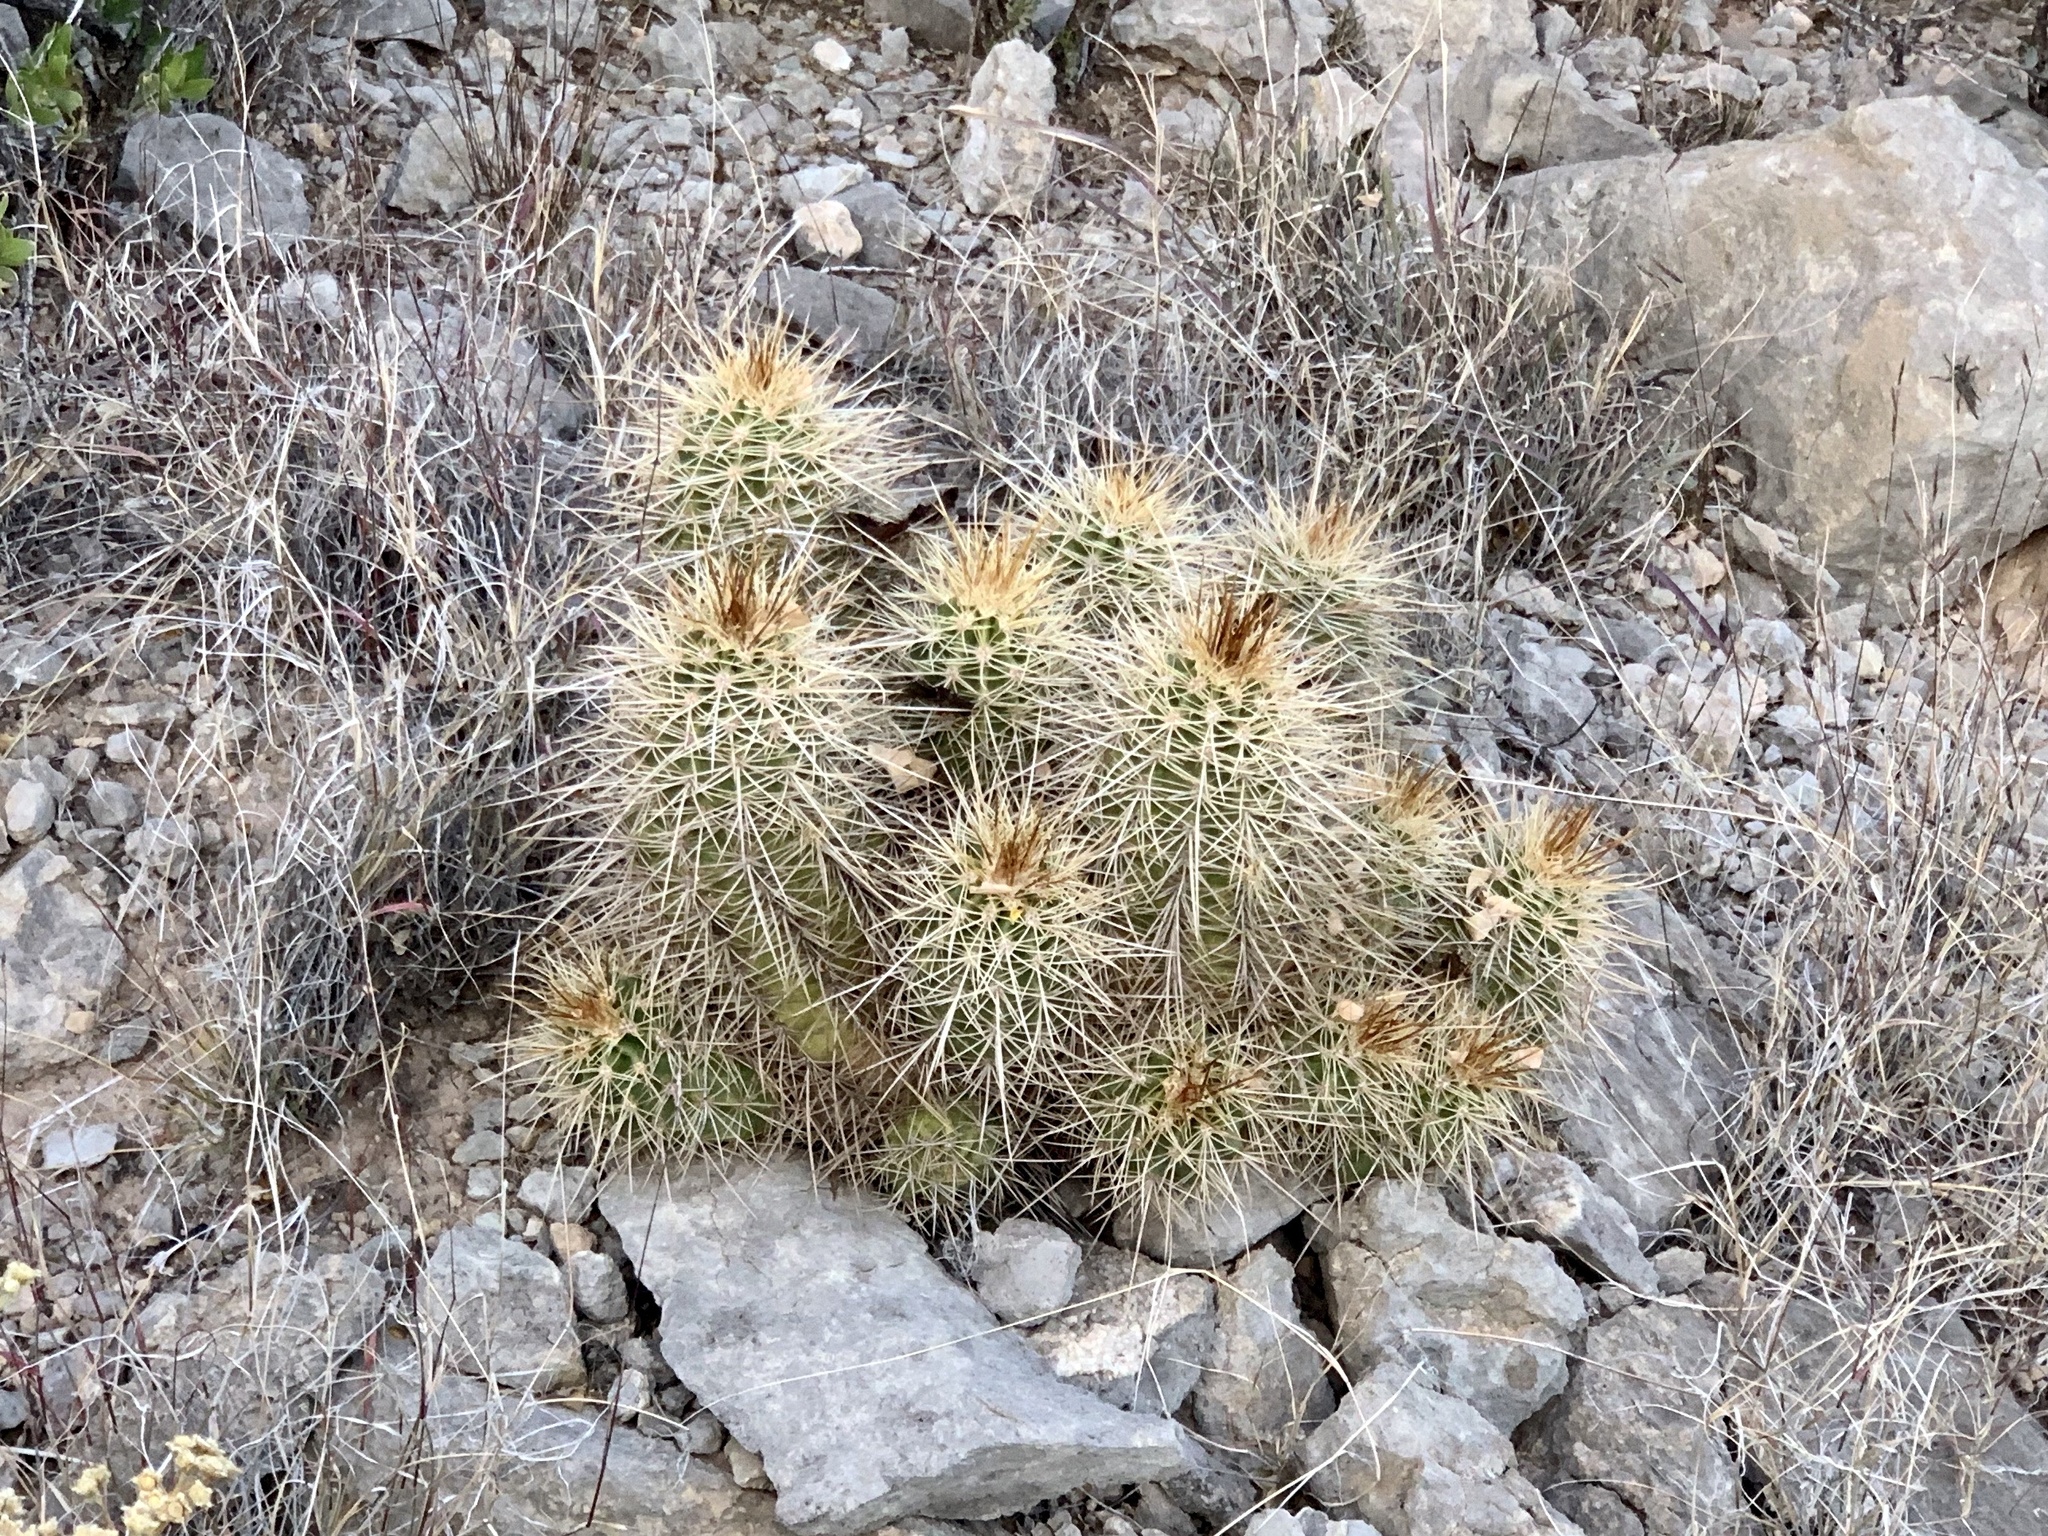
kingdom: Plantae
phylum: Tracheophyta
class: Magnoliopsida
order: Caryophyllales
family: Cactaceae
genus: Echinocereus
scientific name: Echinocereus coccineus
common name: Scarlet hedgehog cactus
